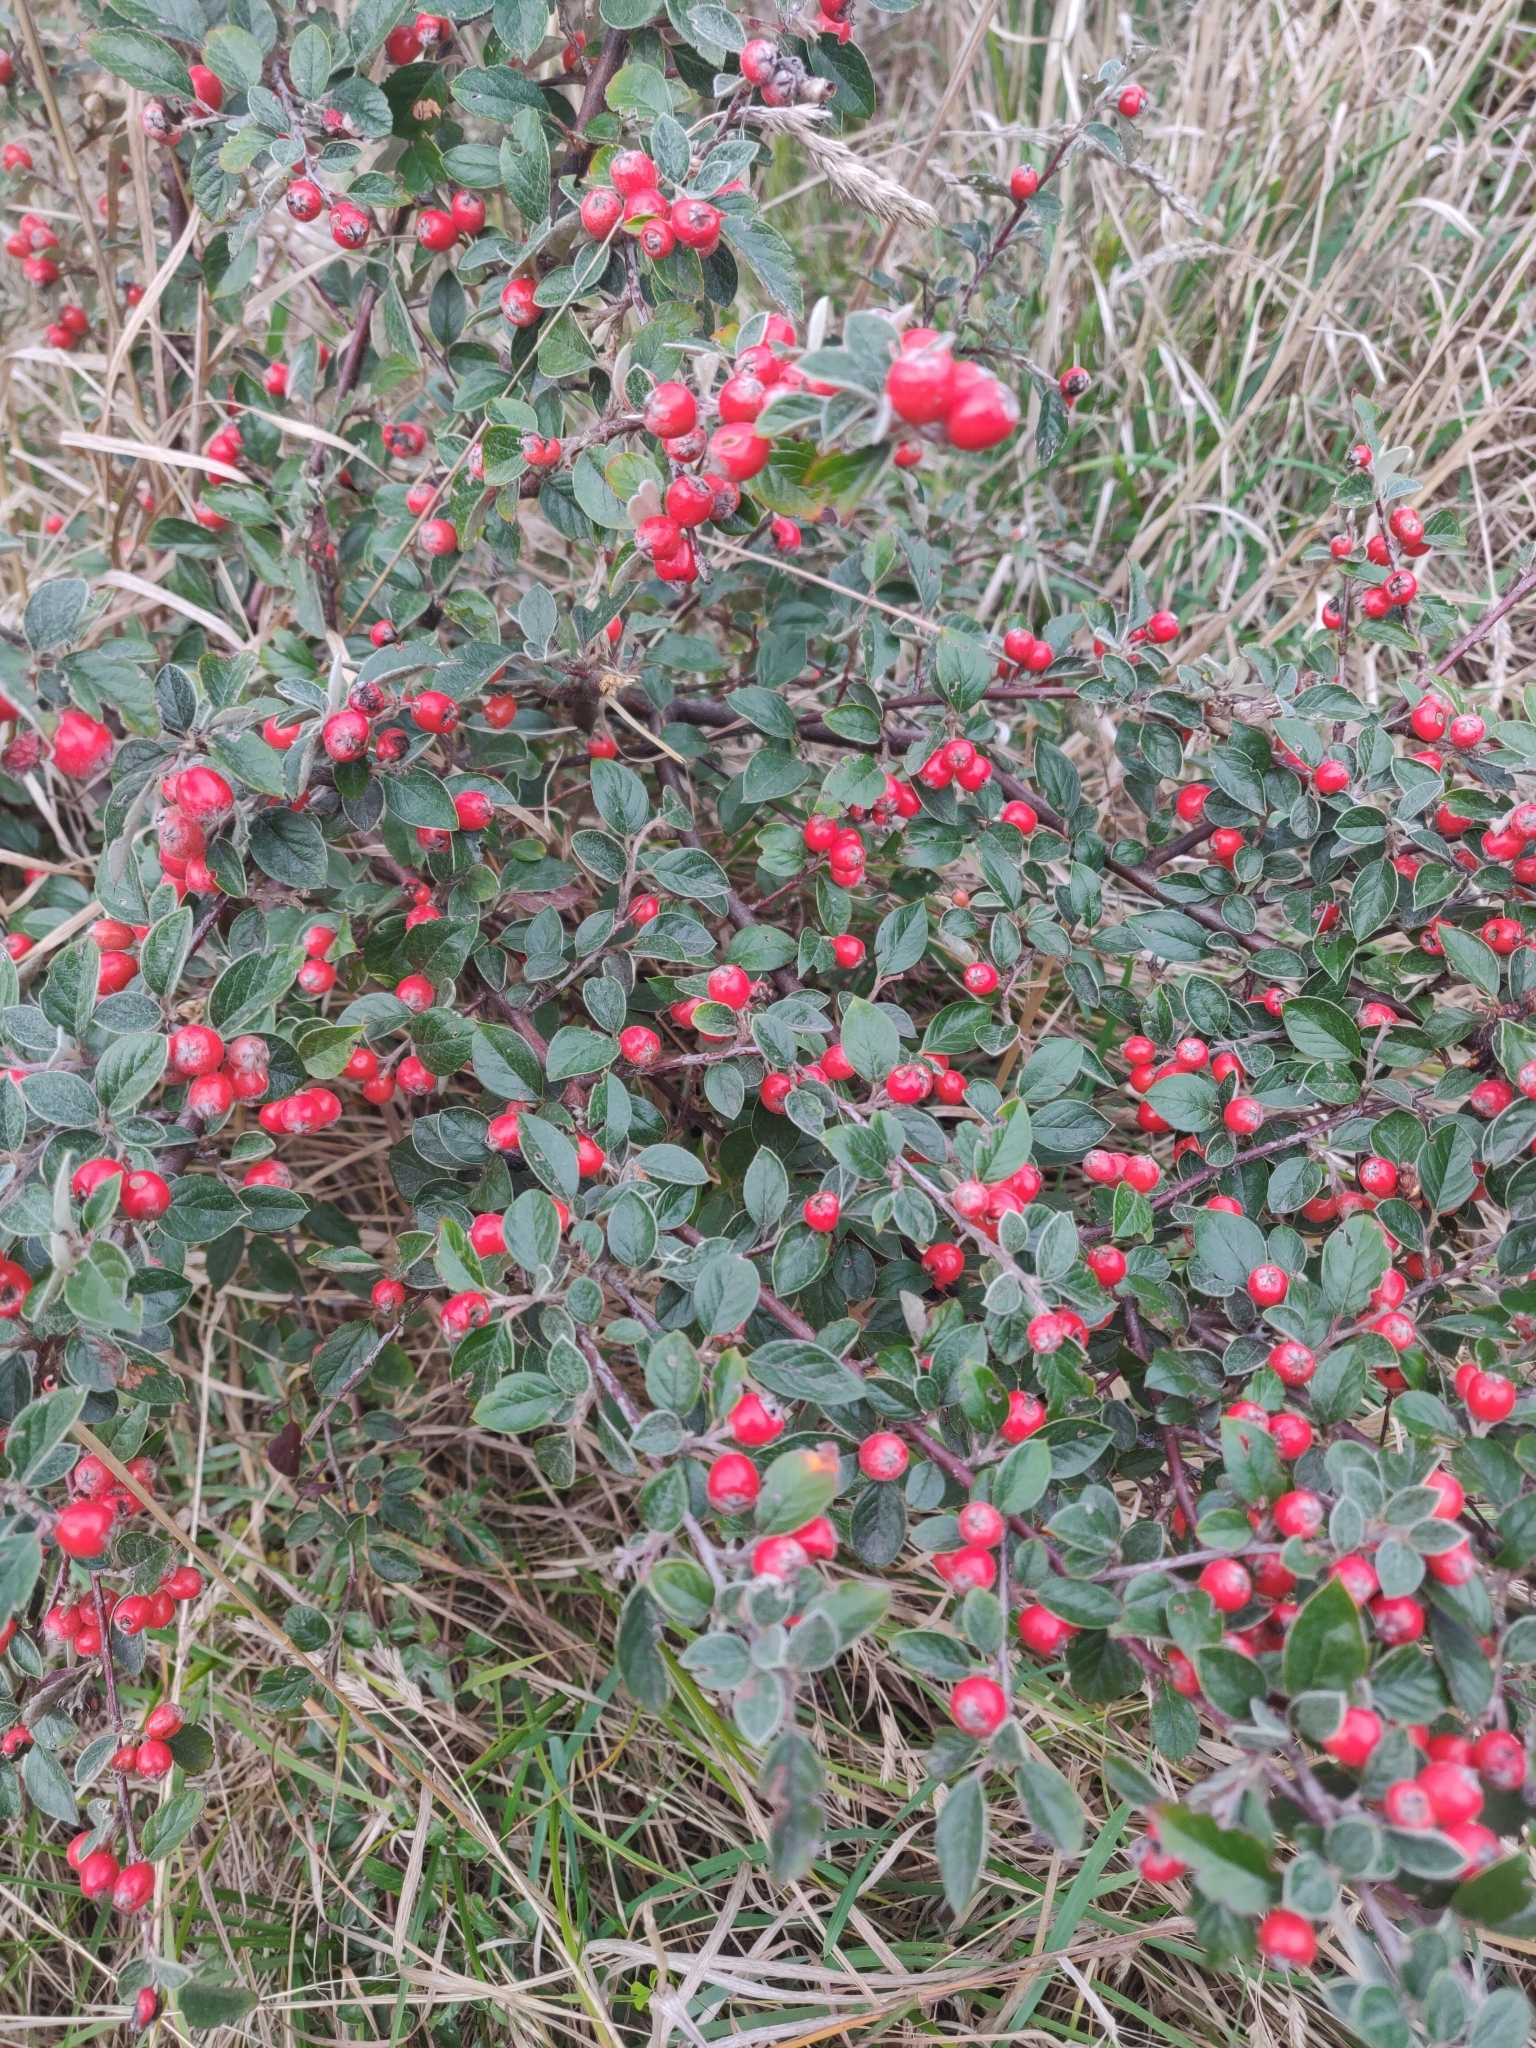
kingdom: Plantae
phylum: Tracheophyta
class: Magnoliopsida
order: Rosales
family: Rosaceae
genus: Cotoneaster
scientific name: Cotoneaster franchetii
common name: Franchet's cotoneaster
